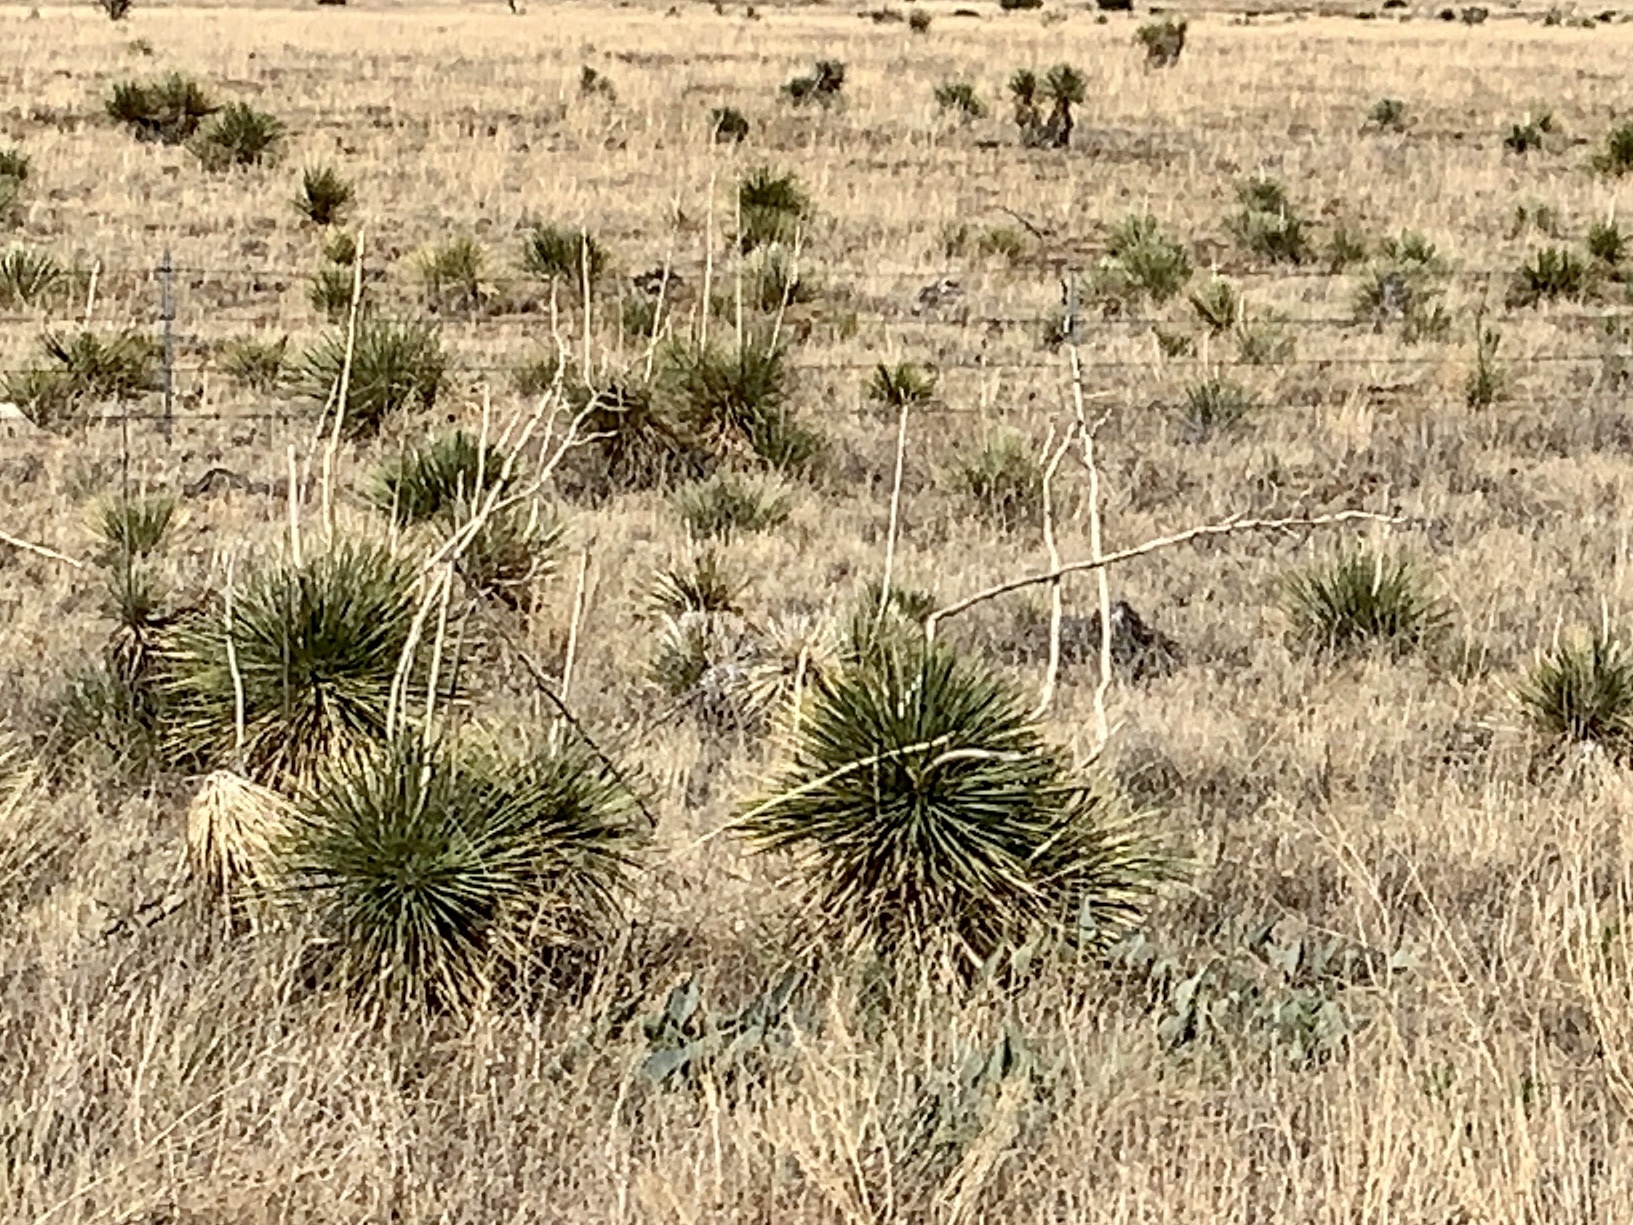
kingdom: Plantae
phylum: Tracheophyta
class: Liliopsida
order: Asparagales
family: Asparagaceae
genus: Yucca
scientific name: Yucca elata
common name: Palmella
